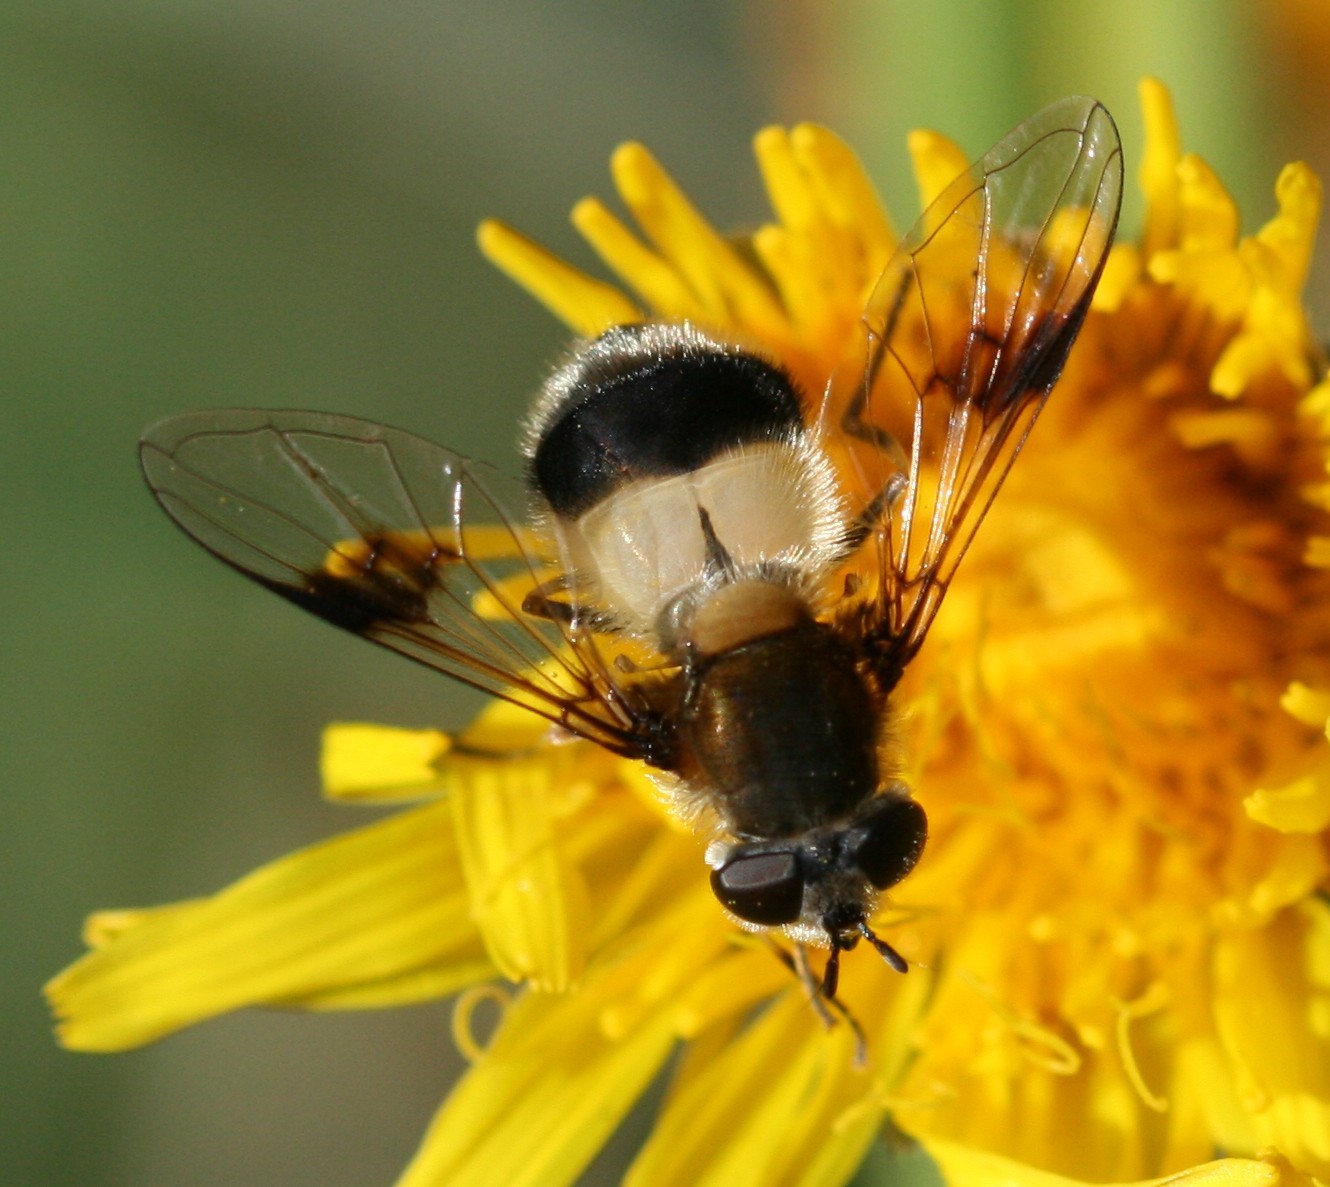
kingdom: Animalia
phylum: Arthropoda
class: Insecta
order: Diptera
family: Syrphidae
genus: Leucozona
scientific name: Leucozona lucorum
